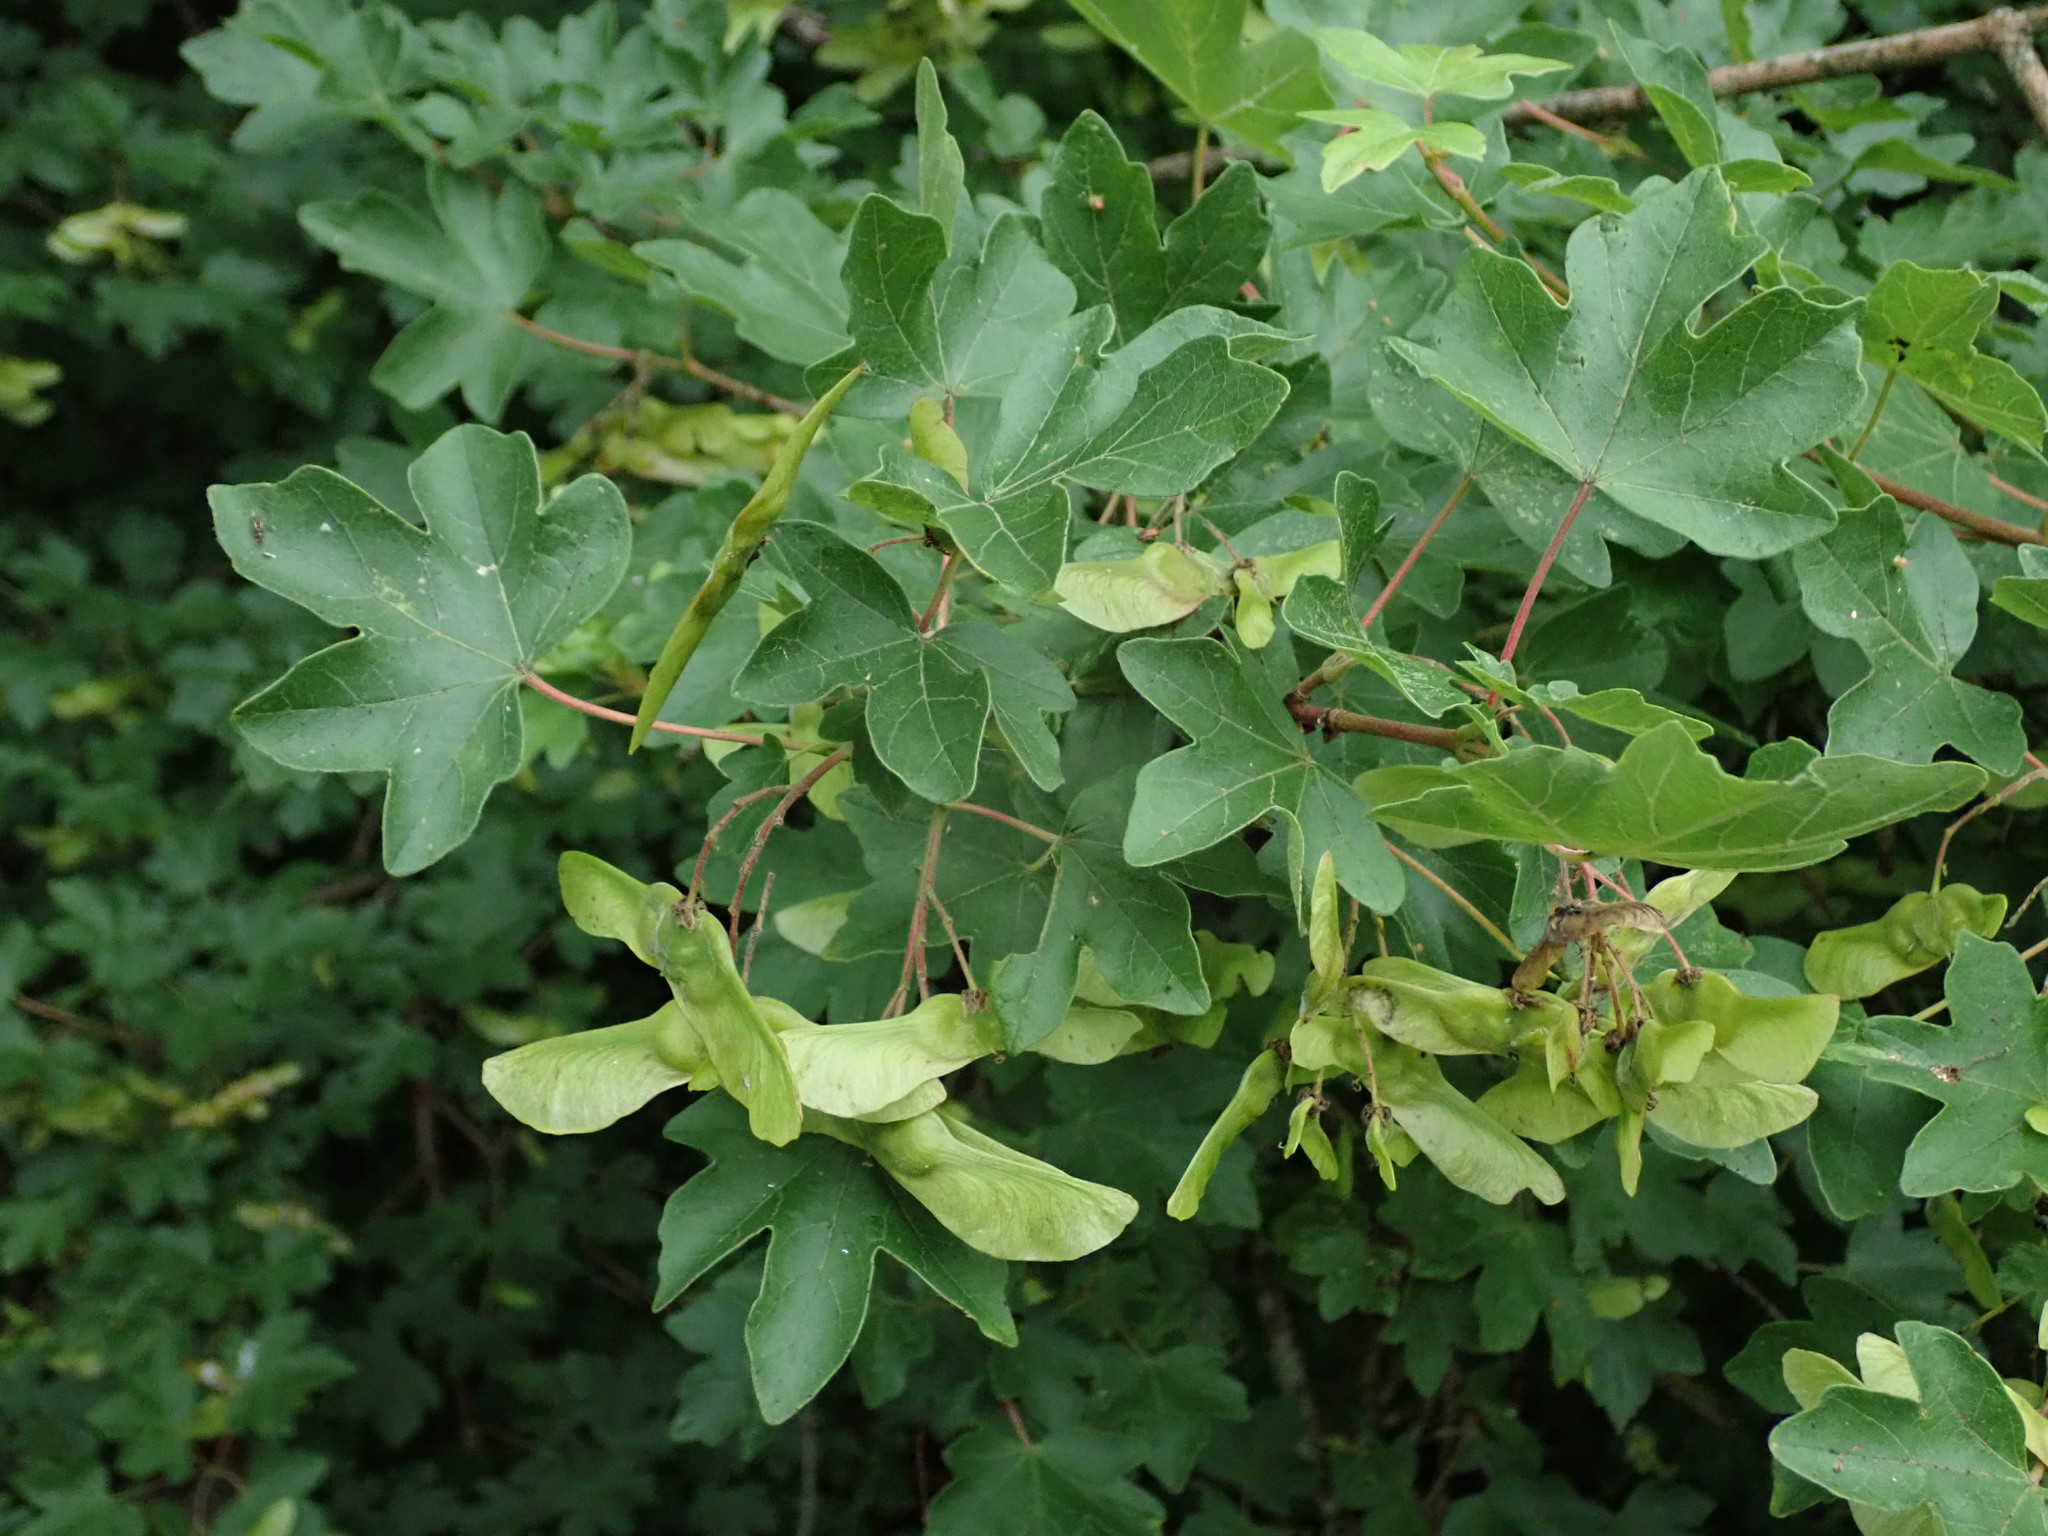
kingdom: Plantae
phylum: Tracheophyta
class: Magnoliopsida
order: Sapindales
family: Sapindaceae
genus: Acer
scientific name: Acer campestre
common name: Field maple
